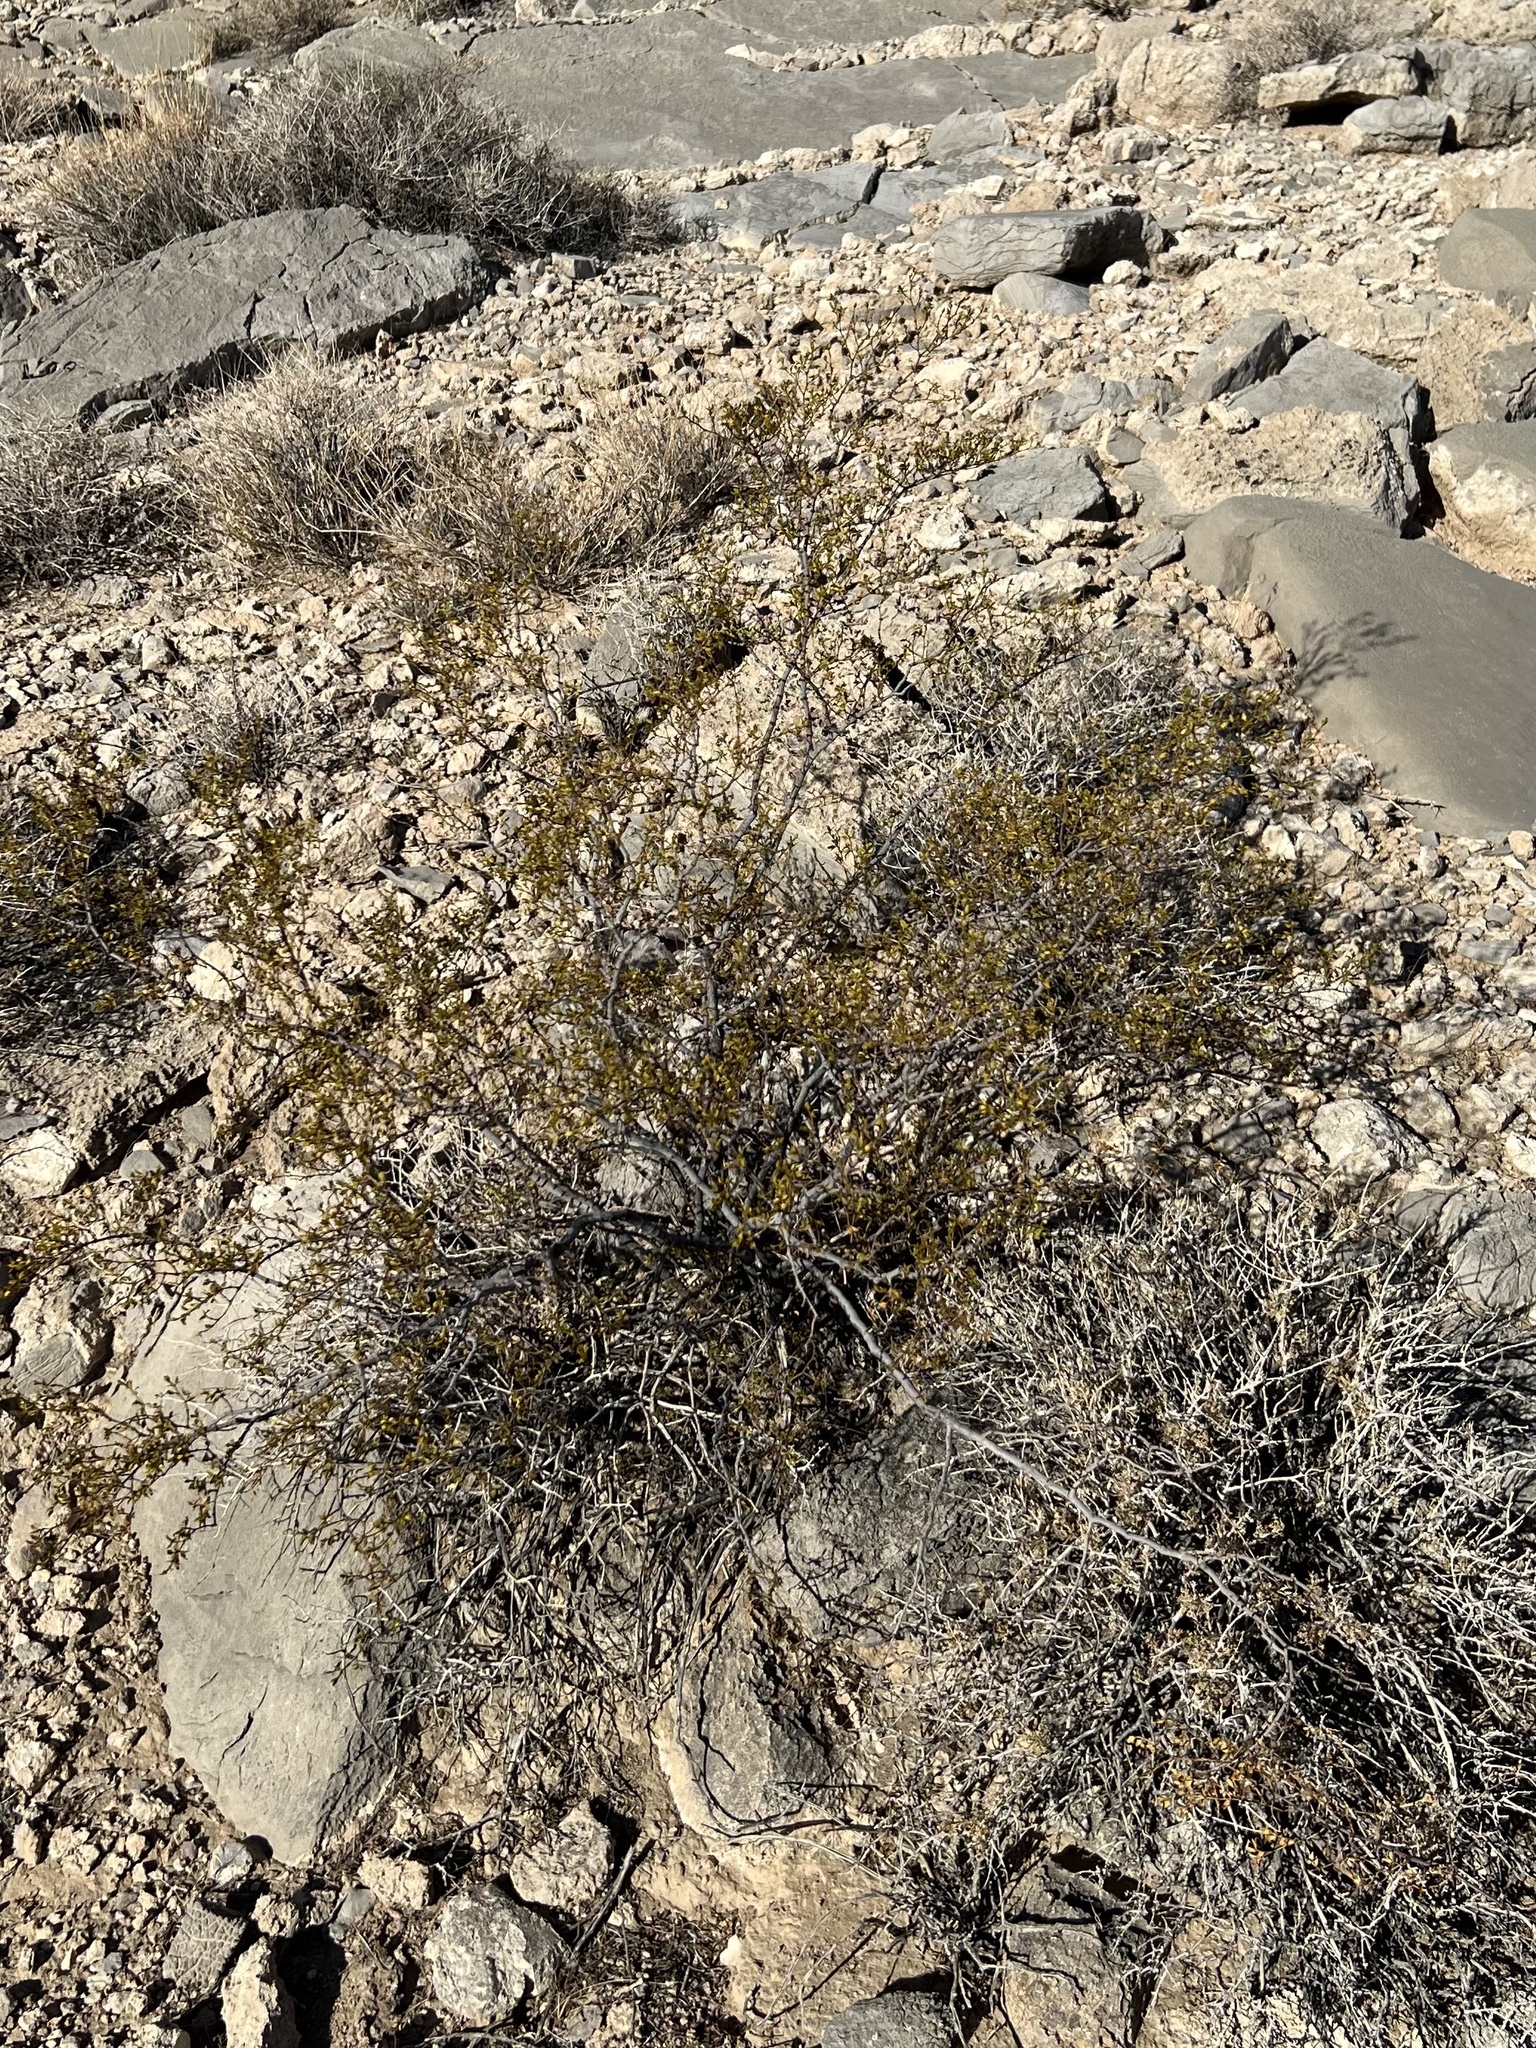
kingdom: Plantae
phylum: Tracheophyta
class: Magnoliopsida
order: Zygophyllales
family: Zygophyllaceae
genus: Larrea
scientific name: Larrea tridentata
